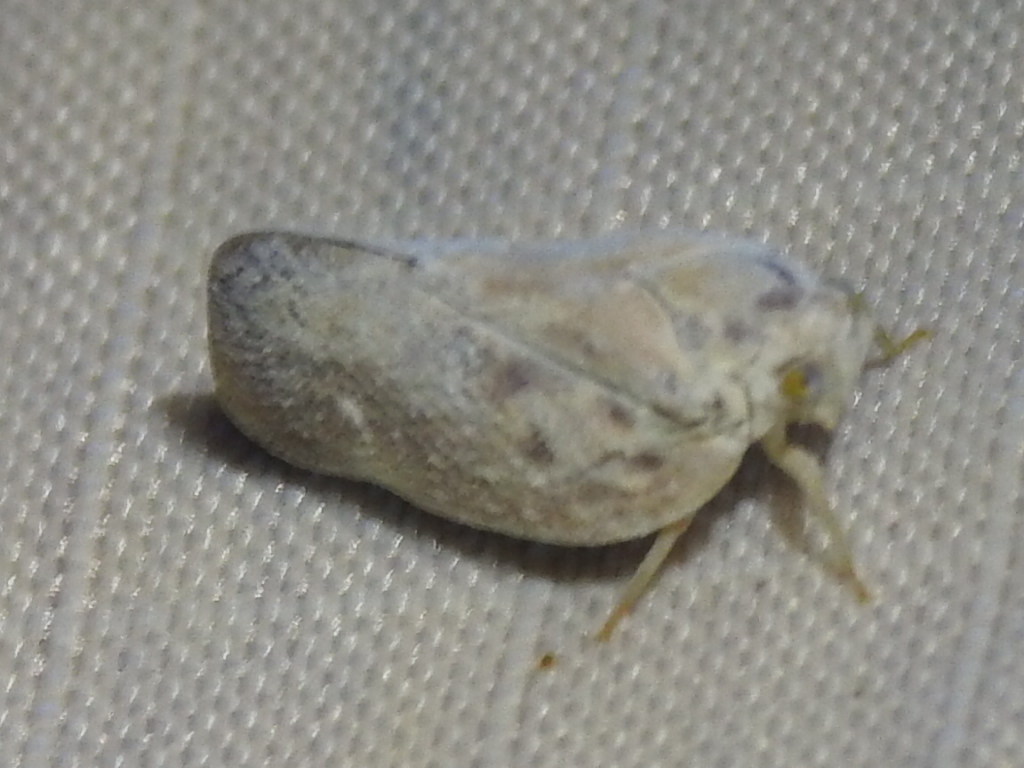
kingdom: Animalia
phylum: Arthropoda
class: Insecta
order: Hemiptera
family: Flatidae
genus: Metcalfa
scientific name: Metcalfa pruinosa
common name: Citrus flatid planthopper
